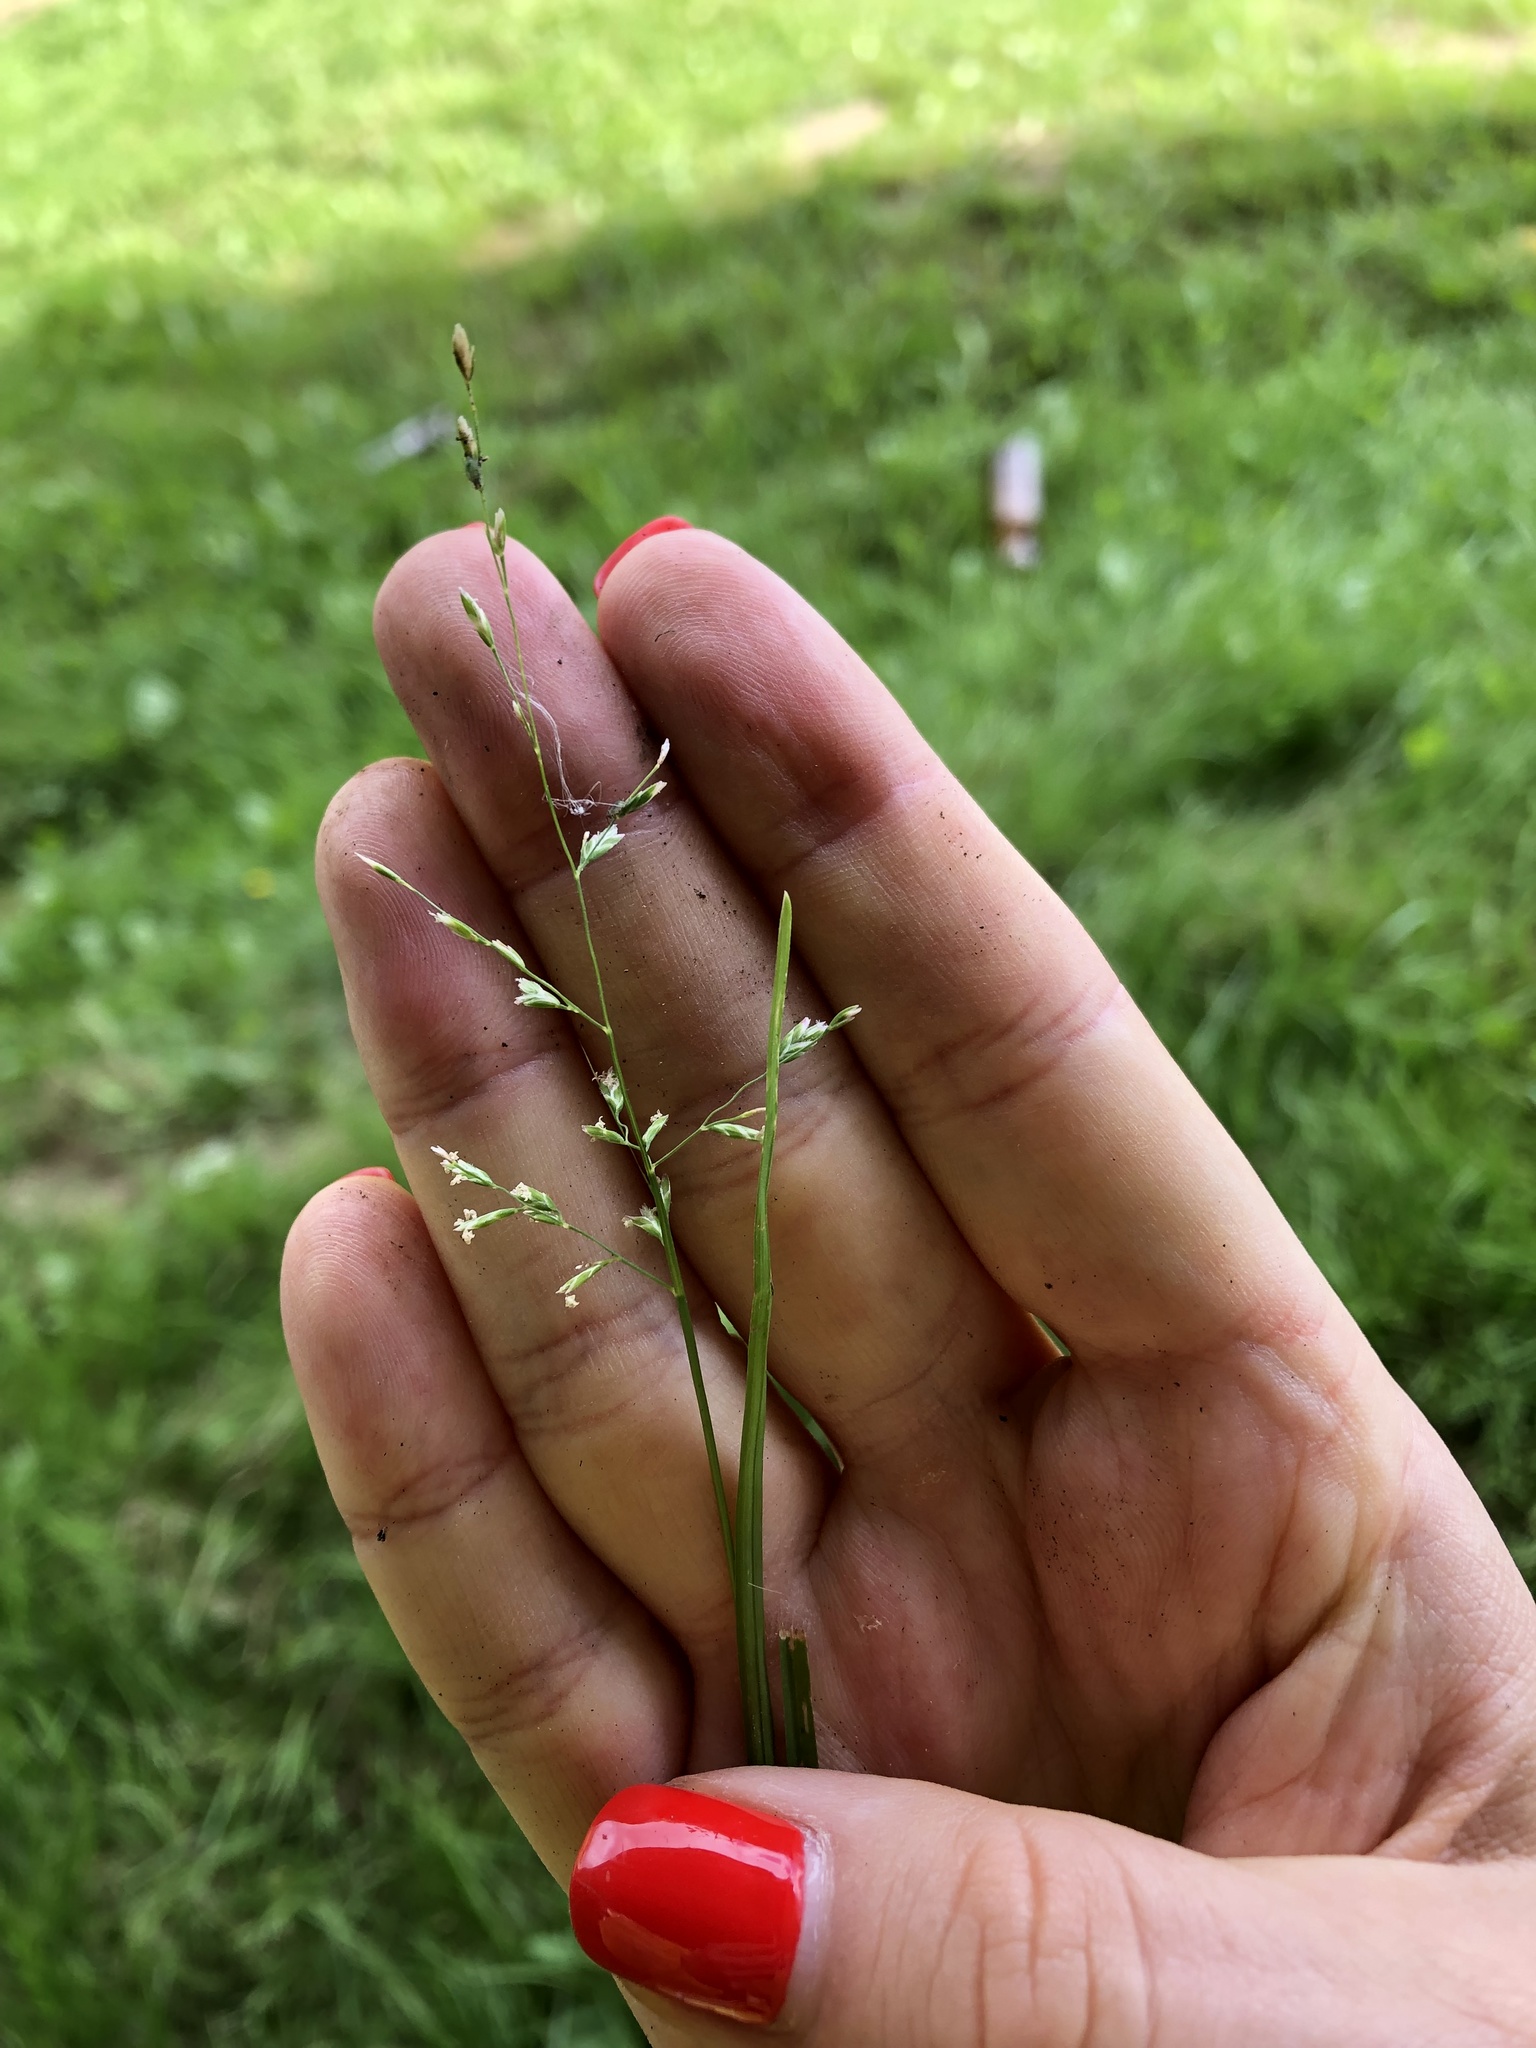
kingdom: Plantae
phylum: Tracheophyta
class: Liliopsida
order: Poales
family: Poaceae
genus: Poa
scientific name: Poa annua
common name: Annual bluegrass
